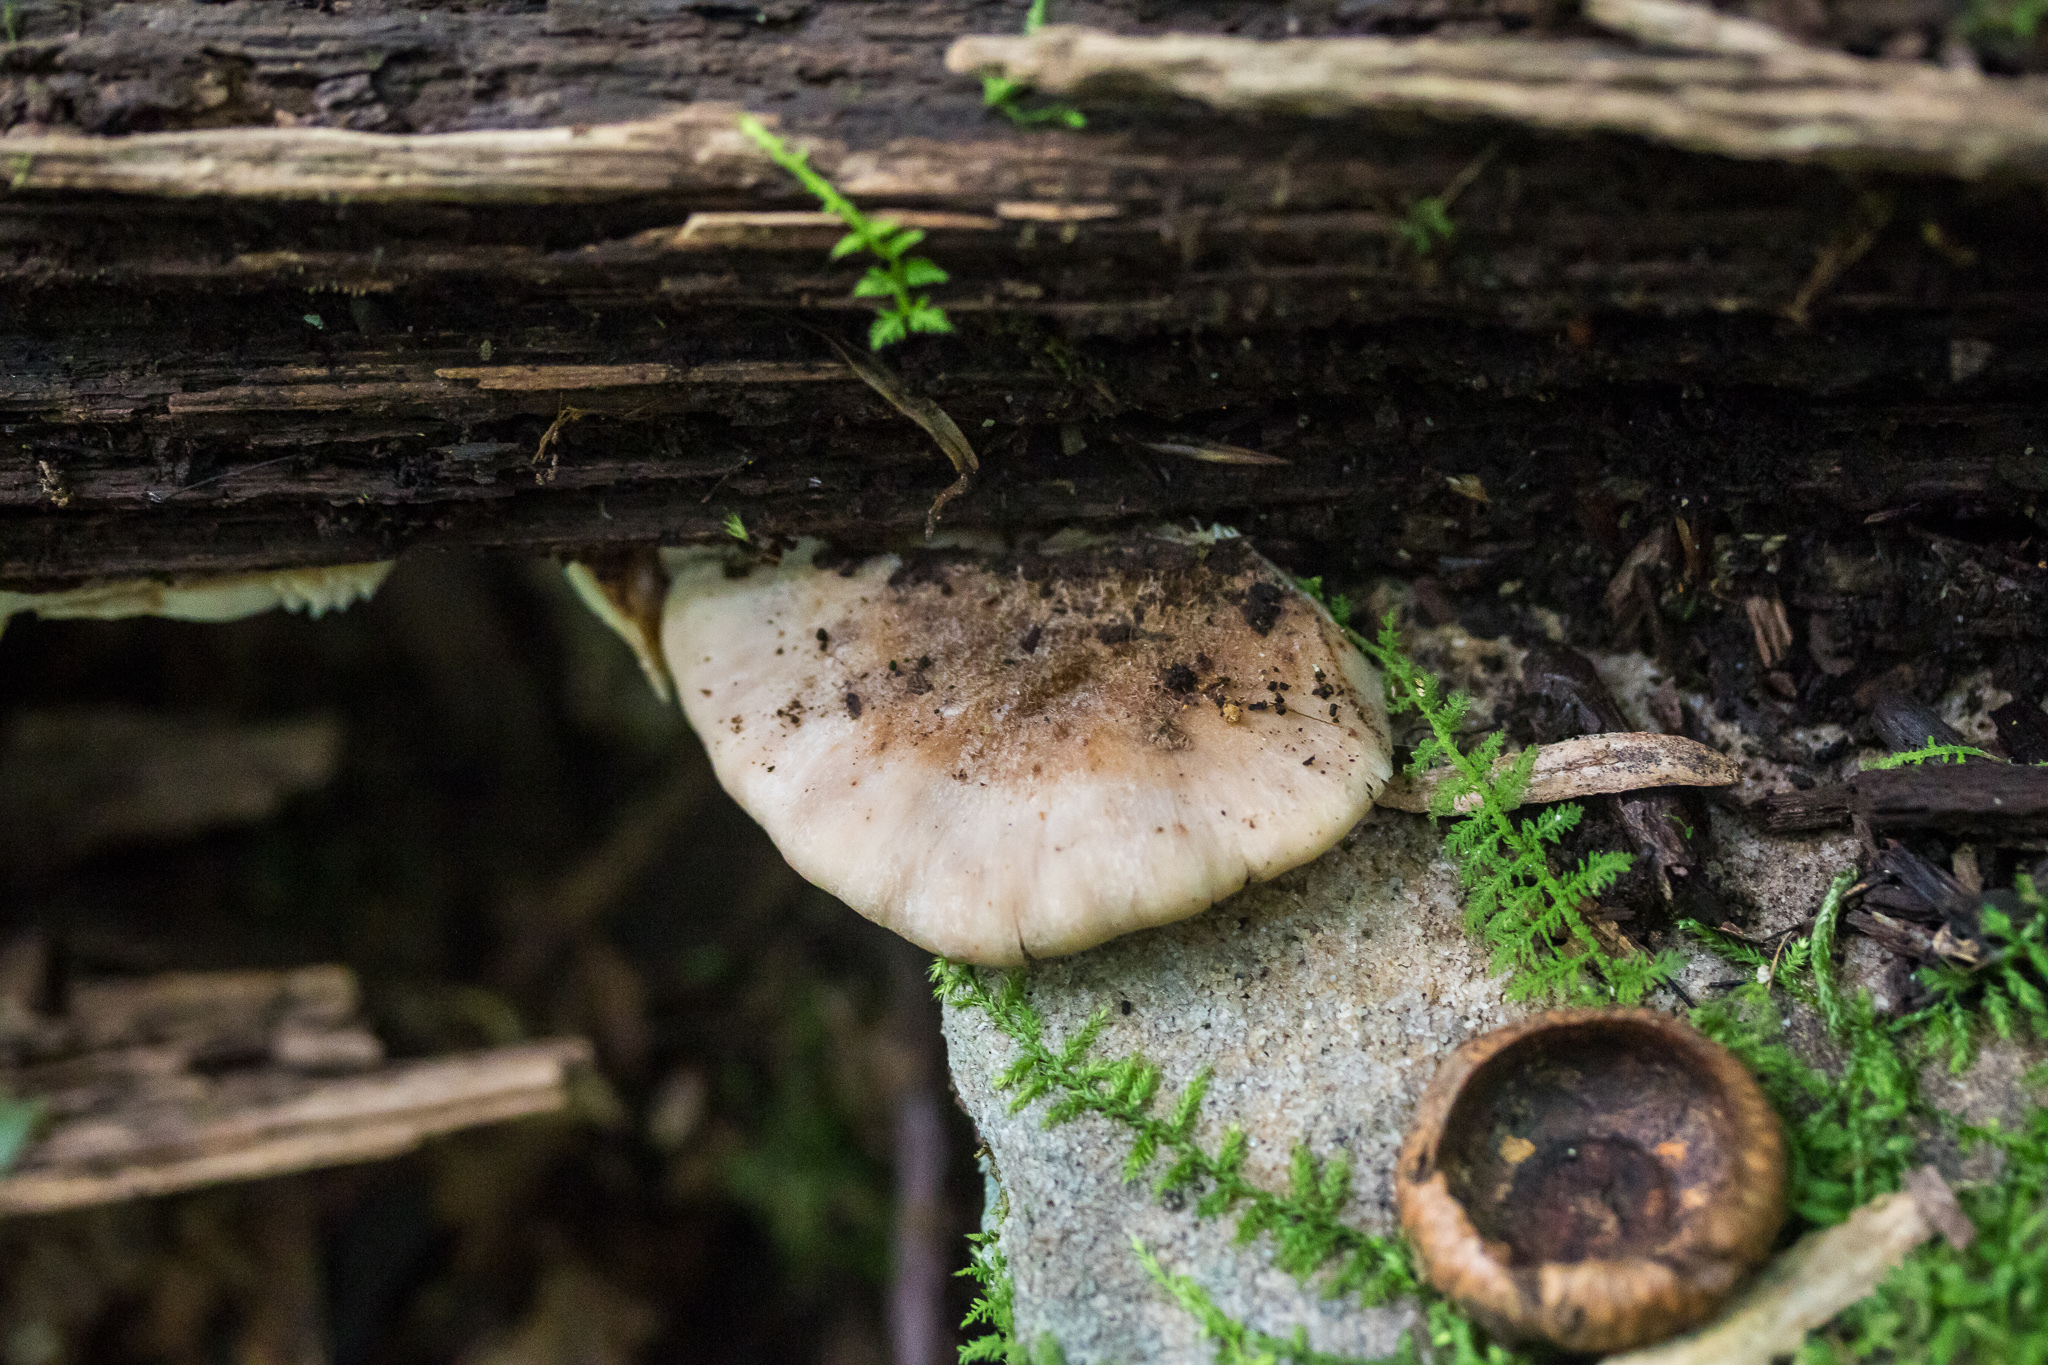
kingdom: Fungi
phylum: Basidiomycota
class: Agaricomycetes
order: Russulales
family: Auriscalpiaceae
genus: Lentinellus
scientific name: Lentinellus ursinus
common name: Bear lentinus
